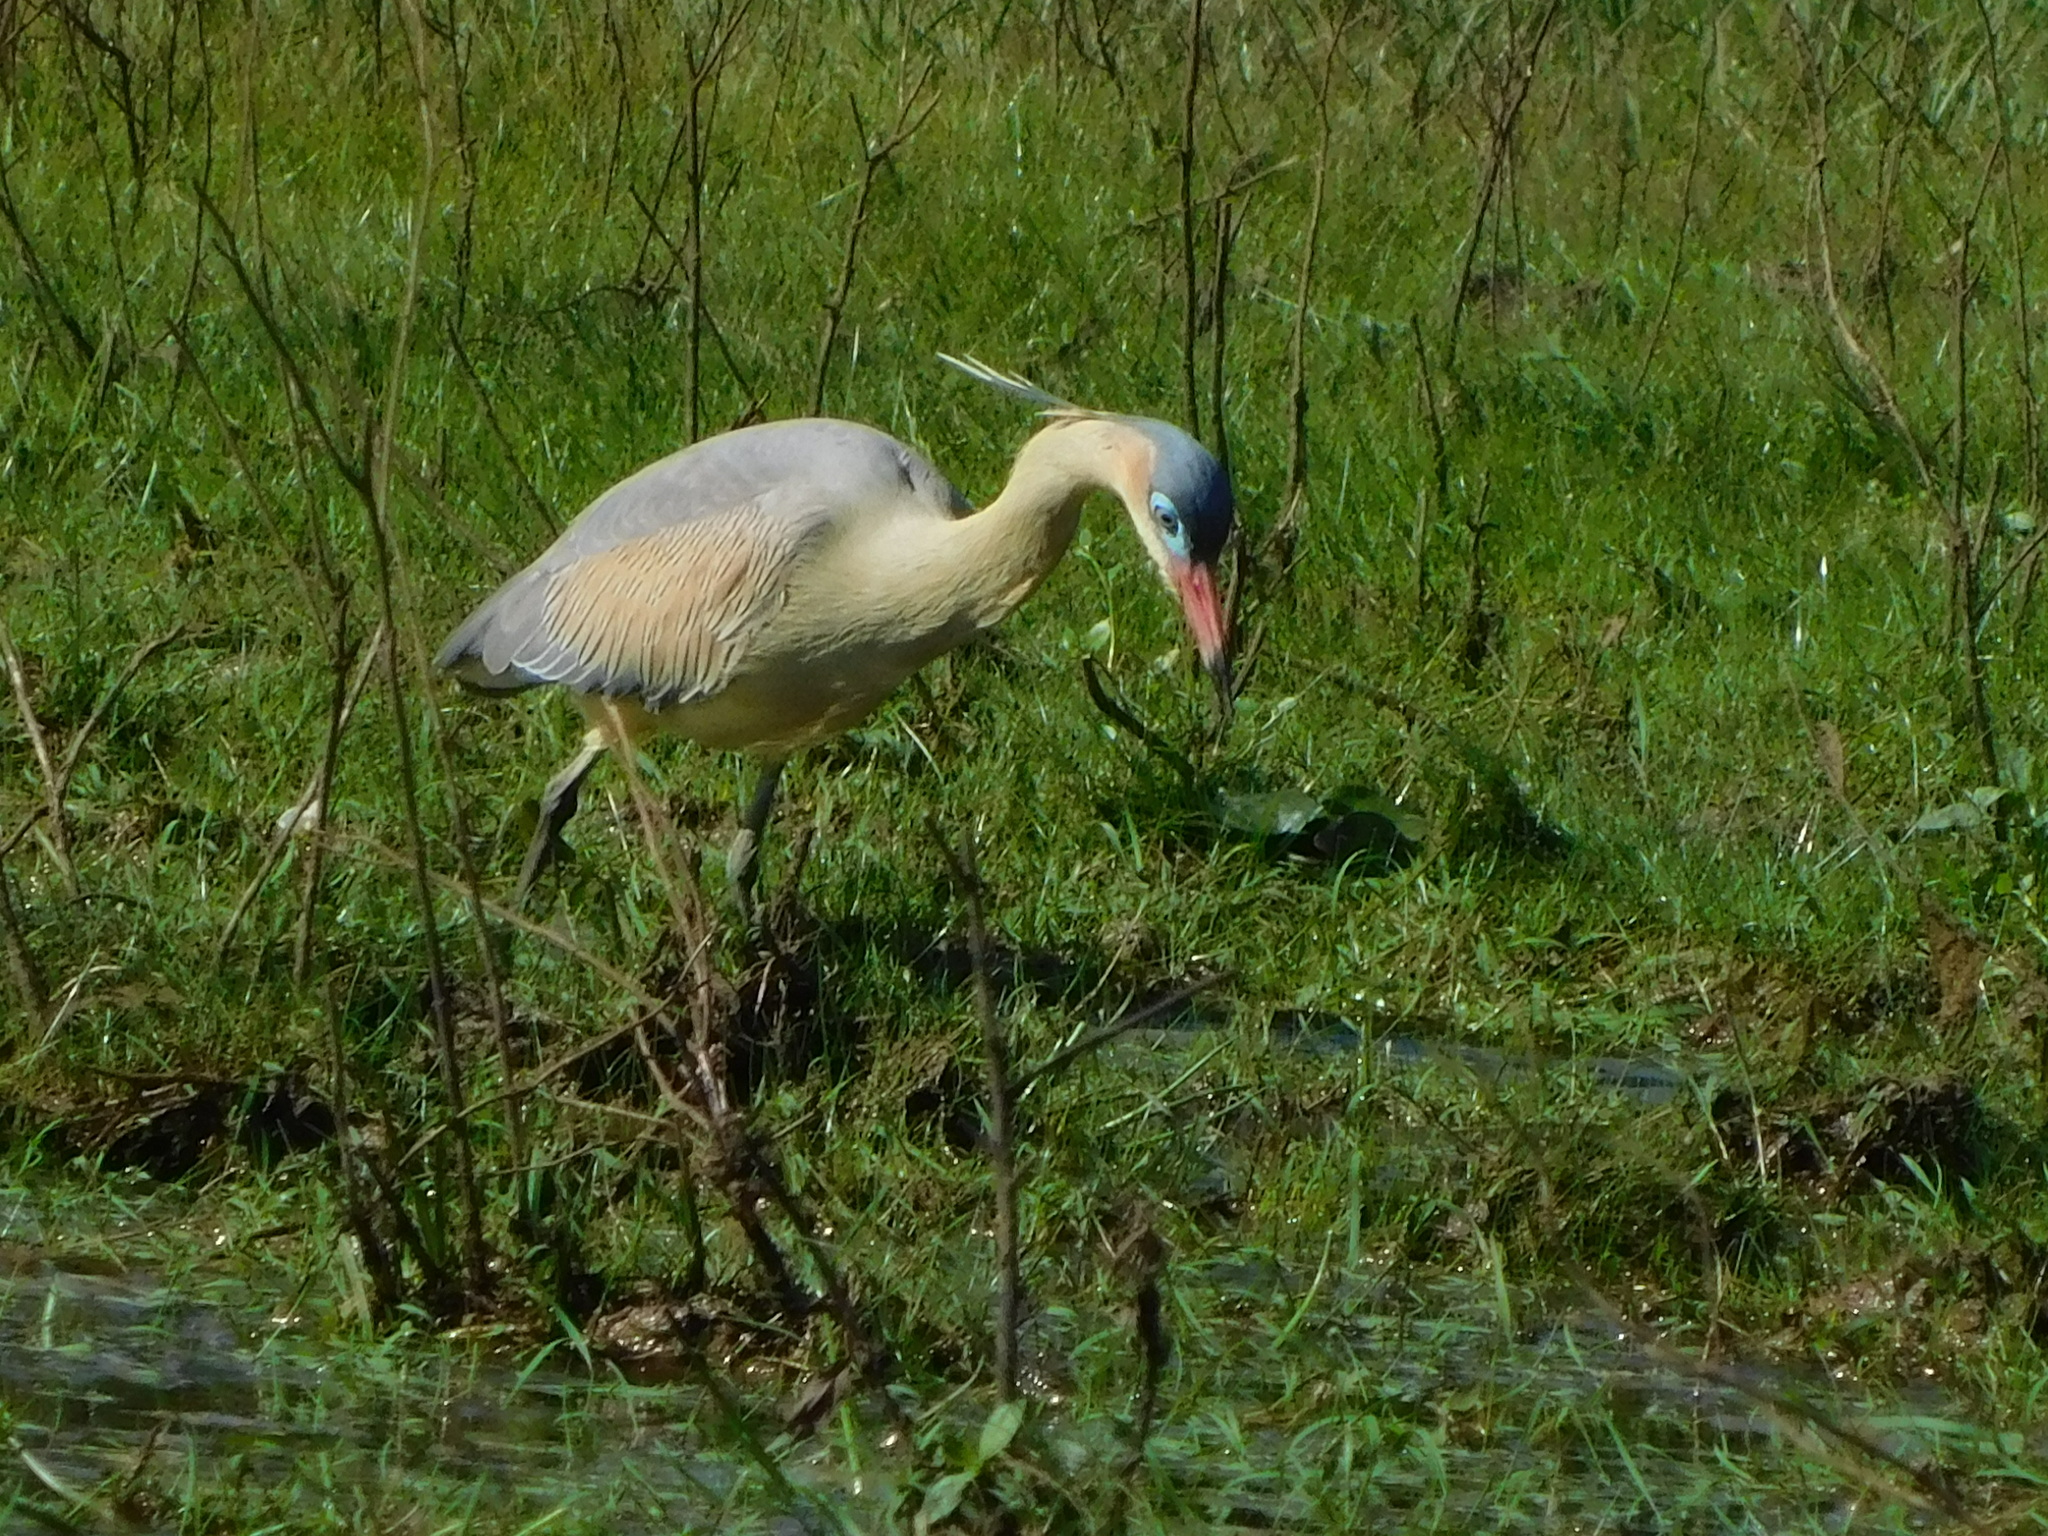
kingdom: Animalia
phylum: Chordata
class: Aves
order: Pelecaniformes
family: Ardeidae
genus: Syrigma
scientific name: Syrigma sibilatrix
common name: Whistling heron
